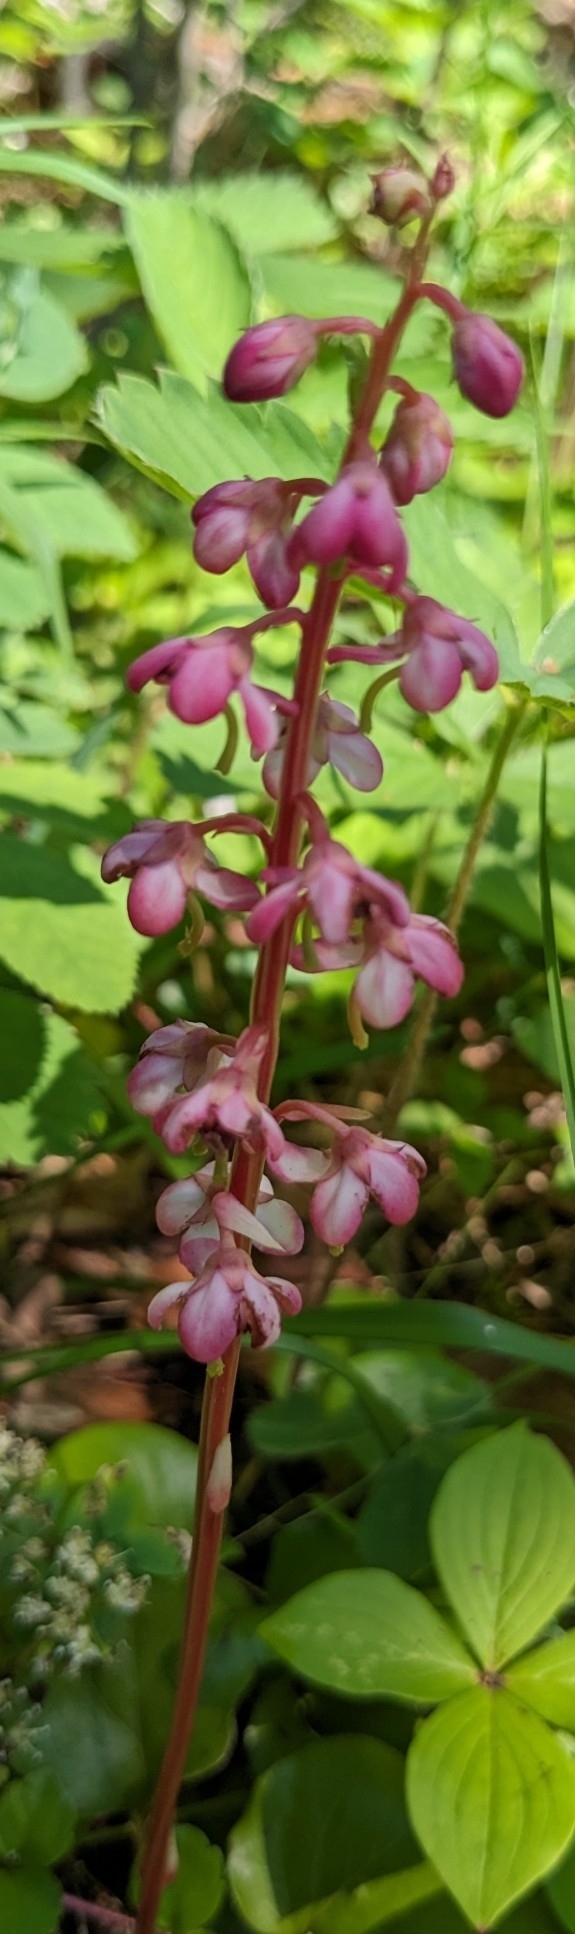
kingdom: Plantae
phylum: Tracheophyta
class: Magnoliopsida
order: Ericales
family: Ericaceae
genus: Pyrola
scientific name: Pyrola asarifolia
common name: Bog wintergreen
